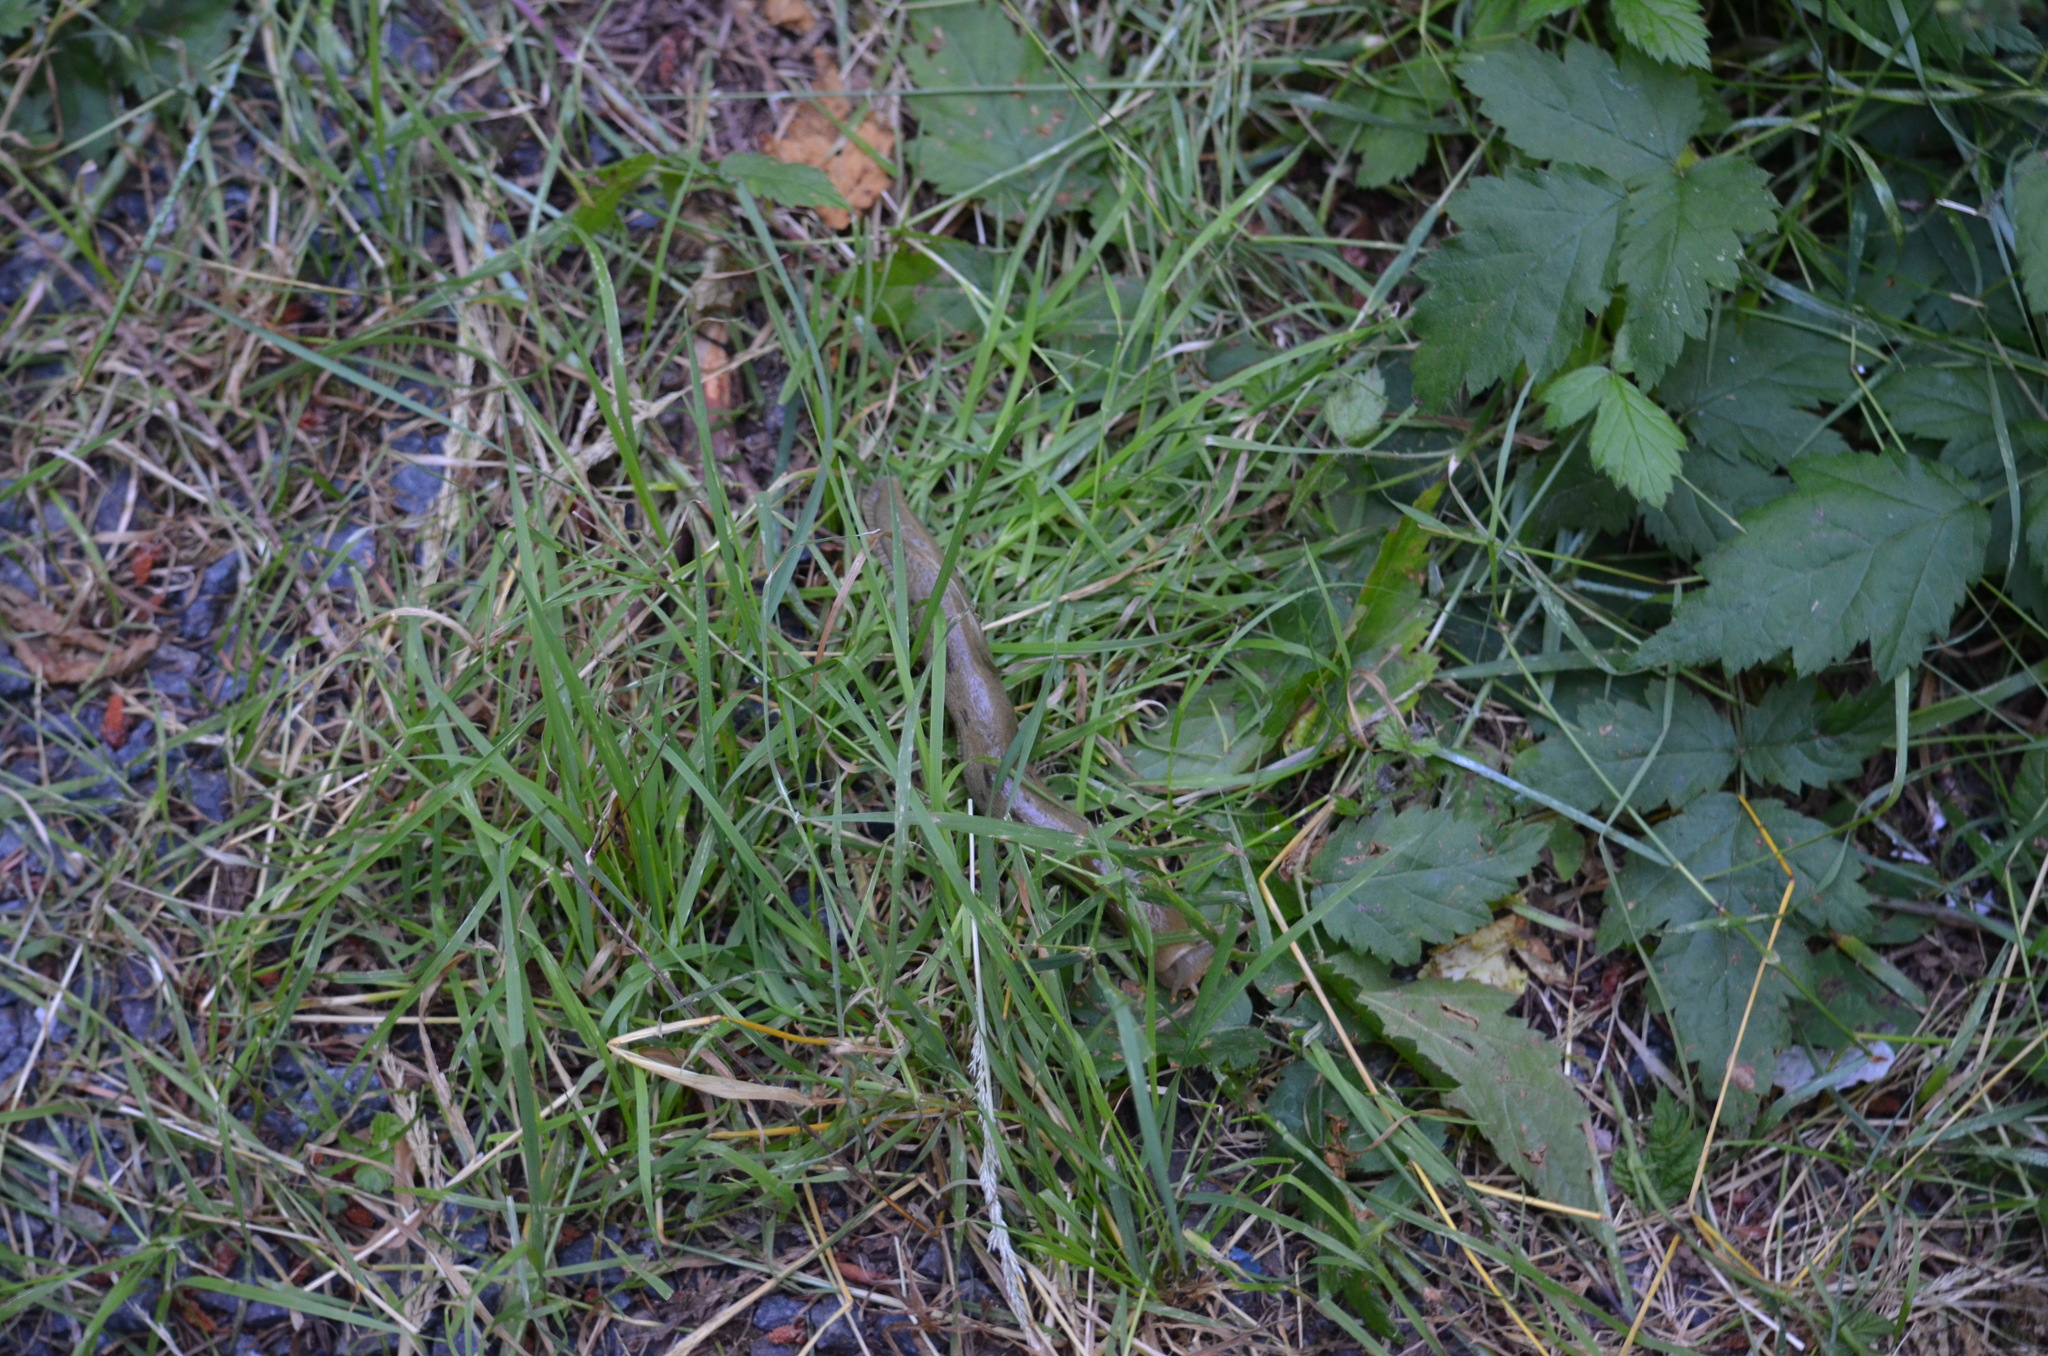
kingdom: Animalia
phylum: Mollusca
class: Gastropoda
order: Stylommatophora
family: Ariolimacidae
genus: Ariolimax
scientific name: Ariolimax columbianus
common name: Pacific banana slug
